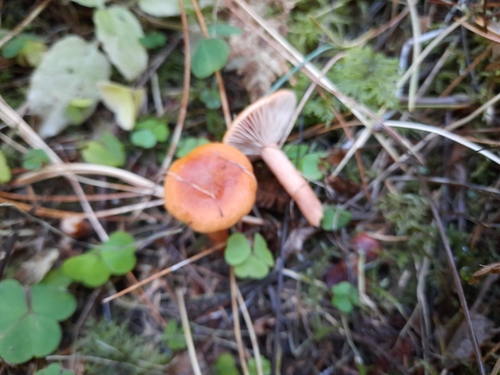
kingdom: Fungi
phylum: Basidiomycota
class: Agaricomycetes
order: Russulales
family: Russulaceae
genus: Lactarius
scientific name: Lactarius aurantiacus
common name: Orange milkcap
